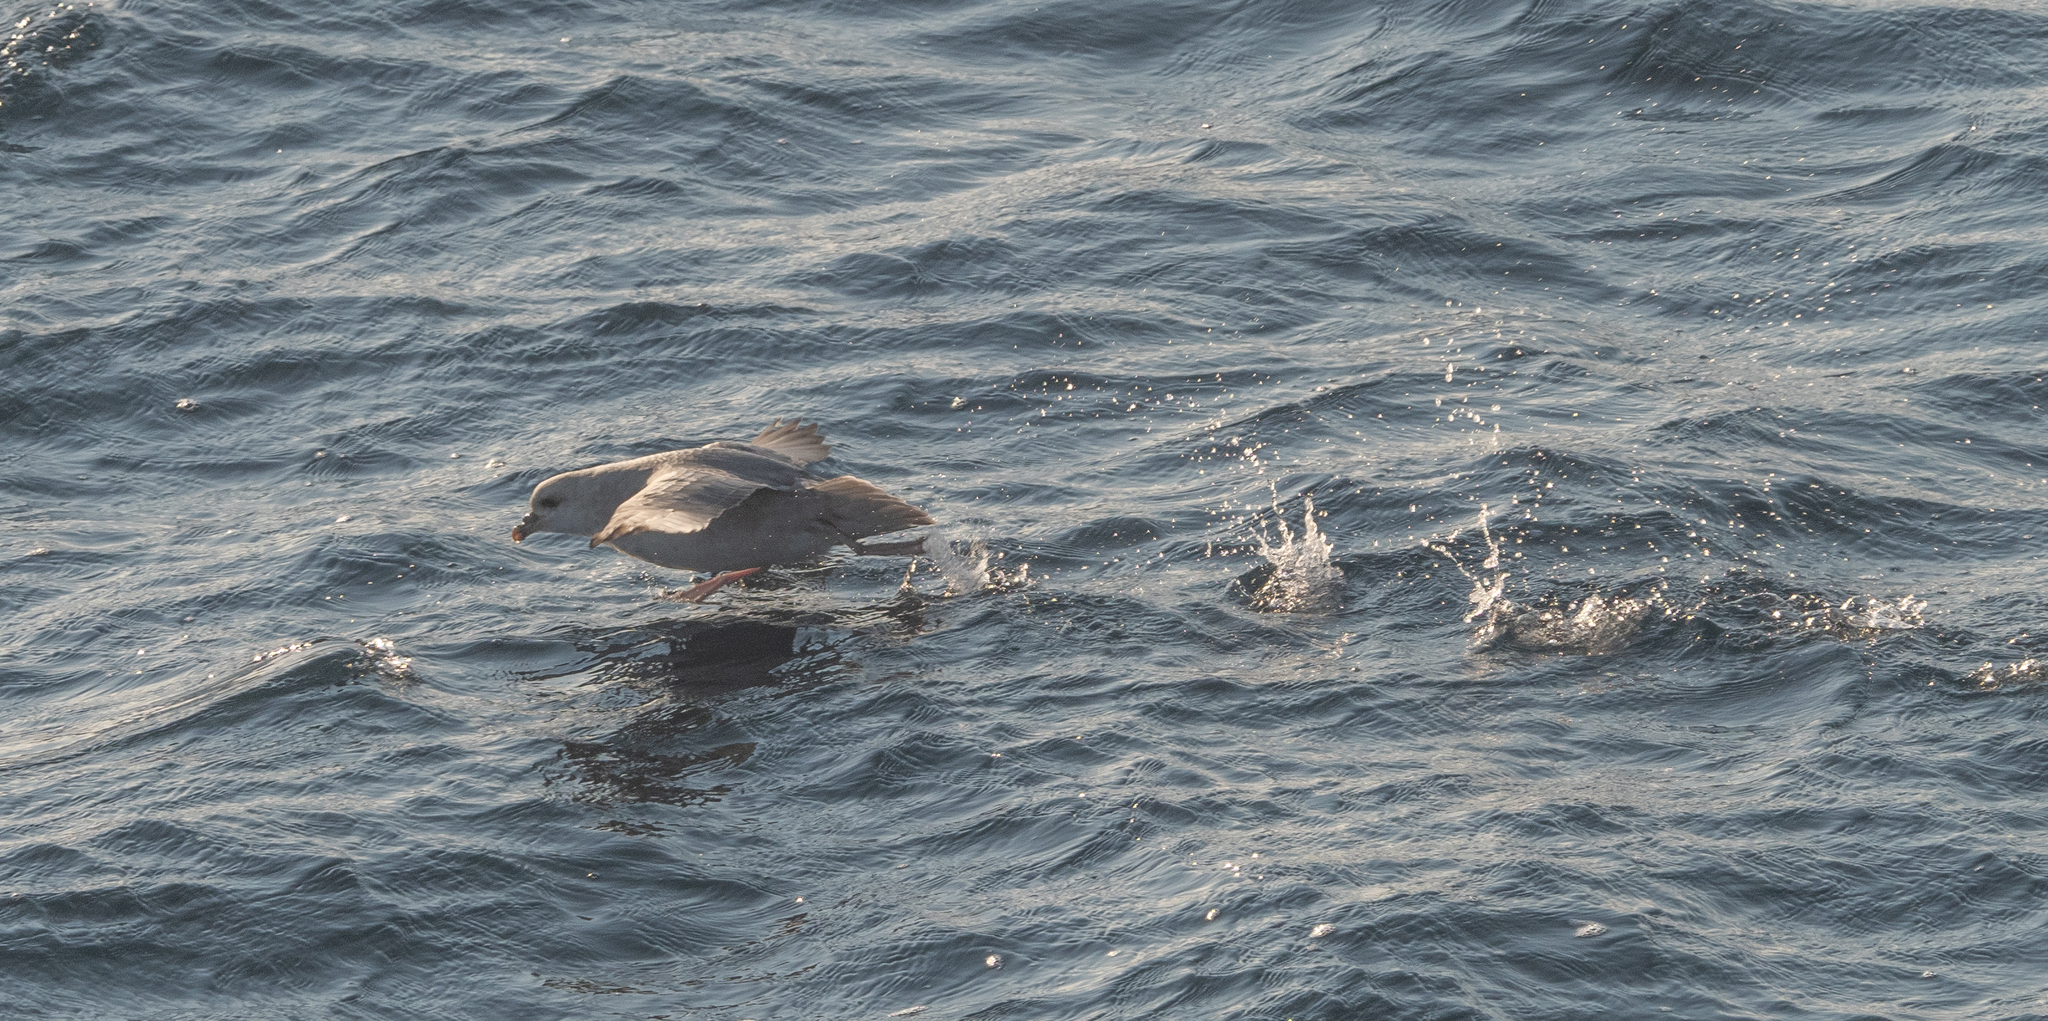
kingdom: Animalia
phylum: Chordata
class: Aves
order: Procellariiformes
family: Procellariidae
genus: Fulmarus
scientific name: Fulmarus glacialis
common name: Northern fulmar
